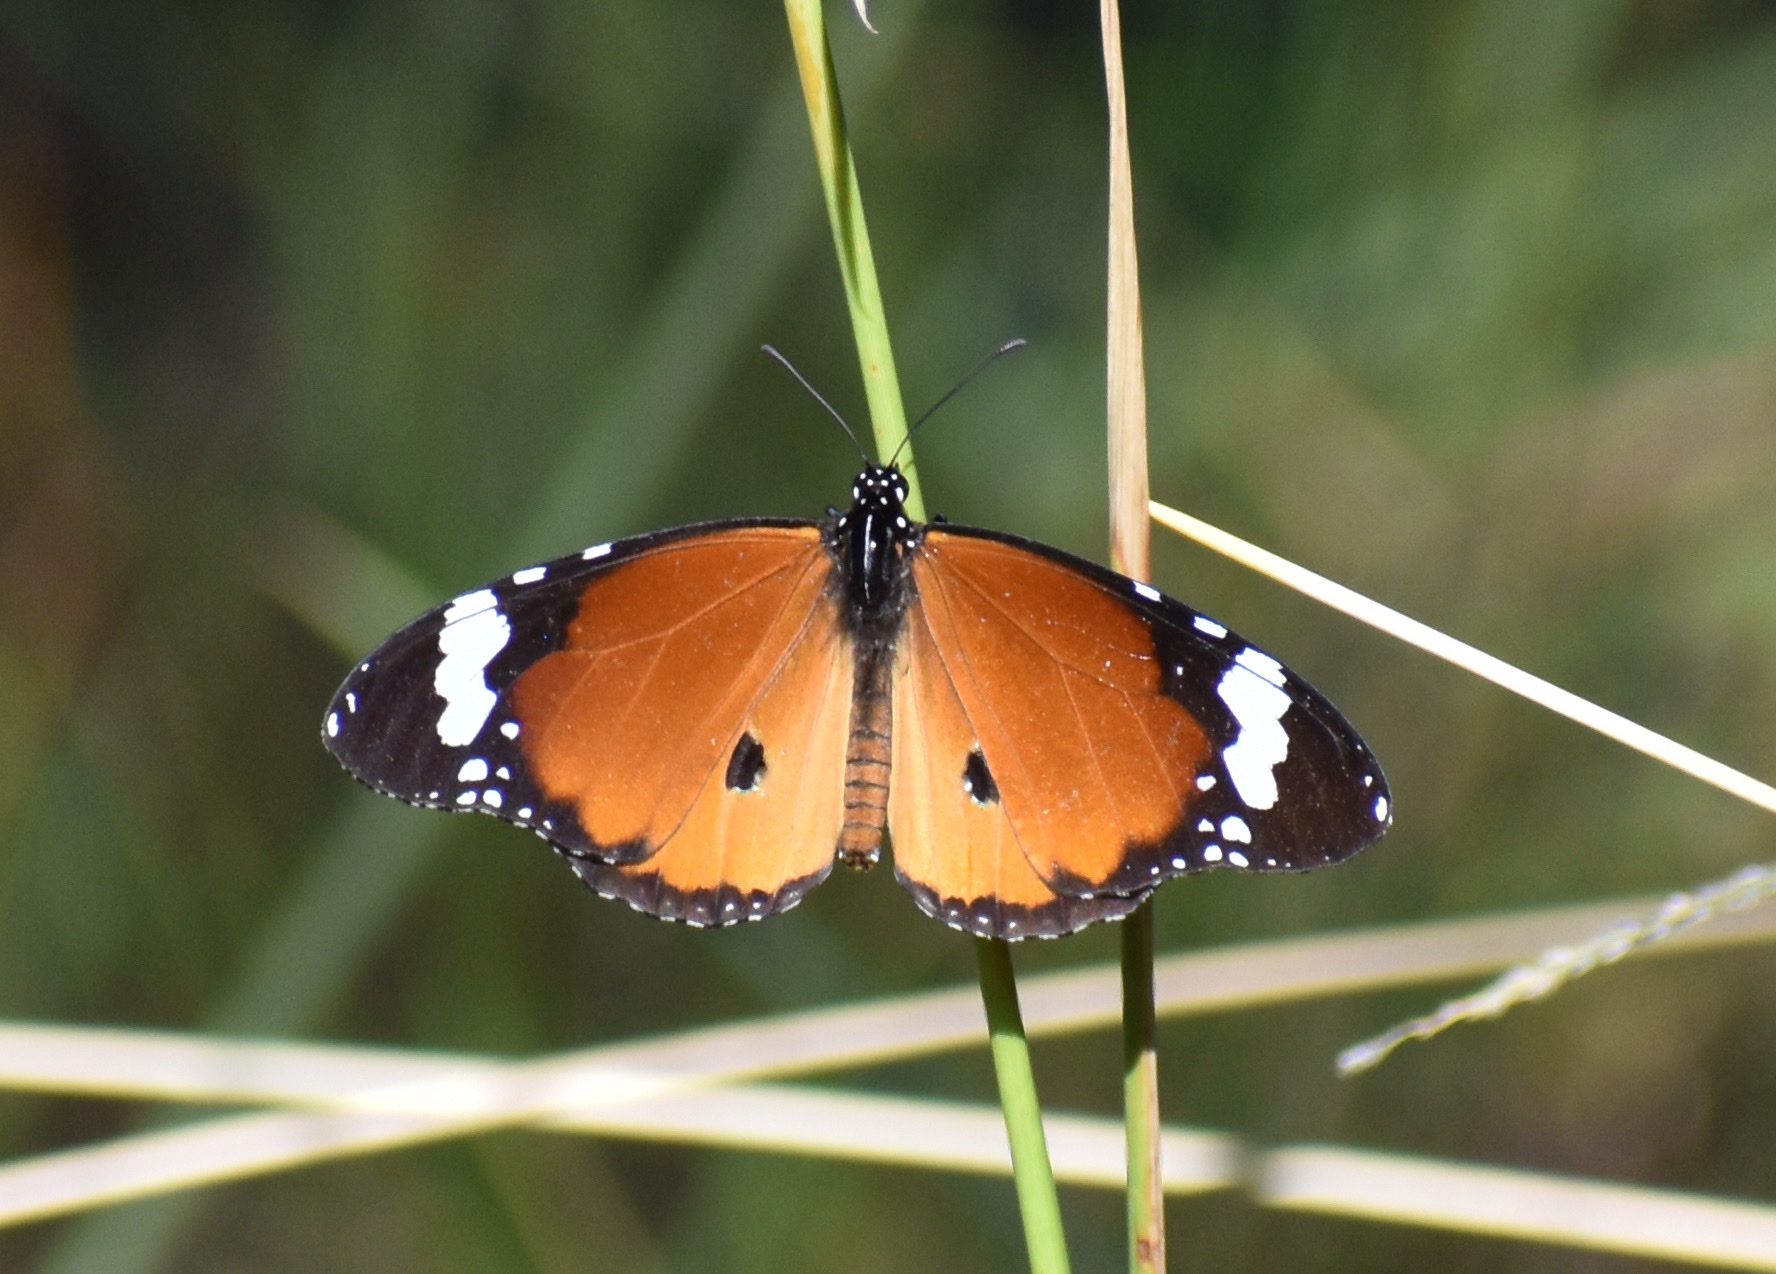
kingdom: Animalia
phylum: Arthropoda
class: Insecta
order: Lepidoptera
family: Nymphalidae
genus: Danaus
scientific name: Danaus chrysippus
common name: Plain tiger
